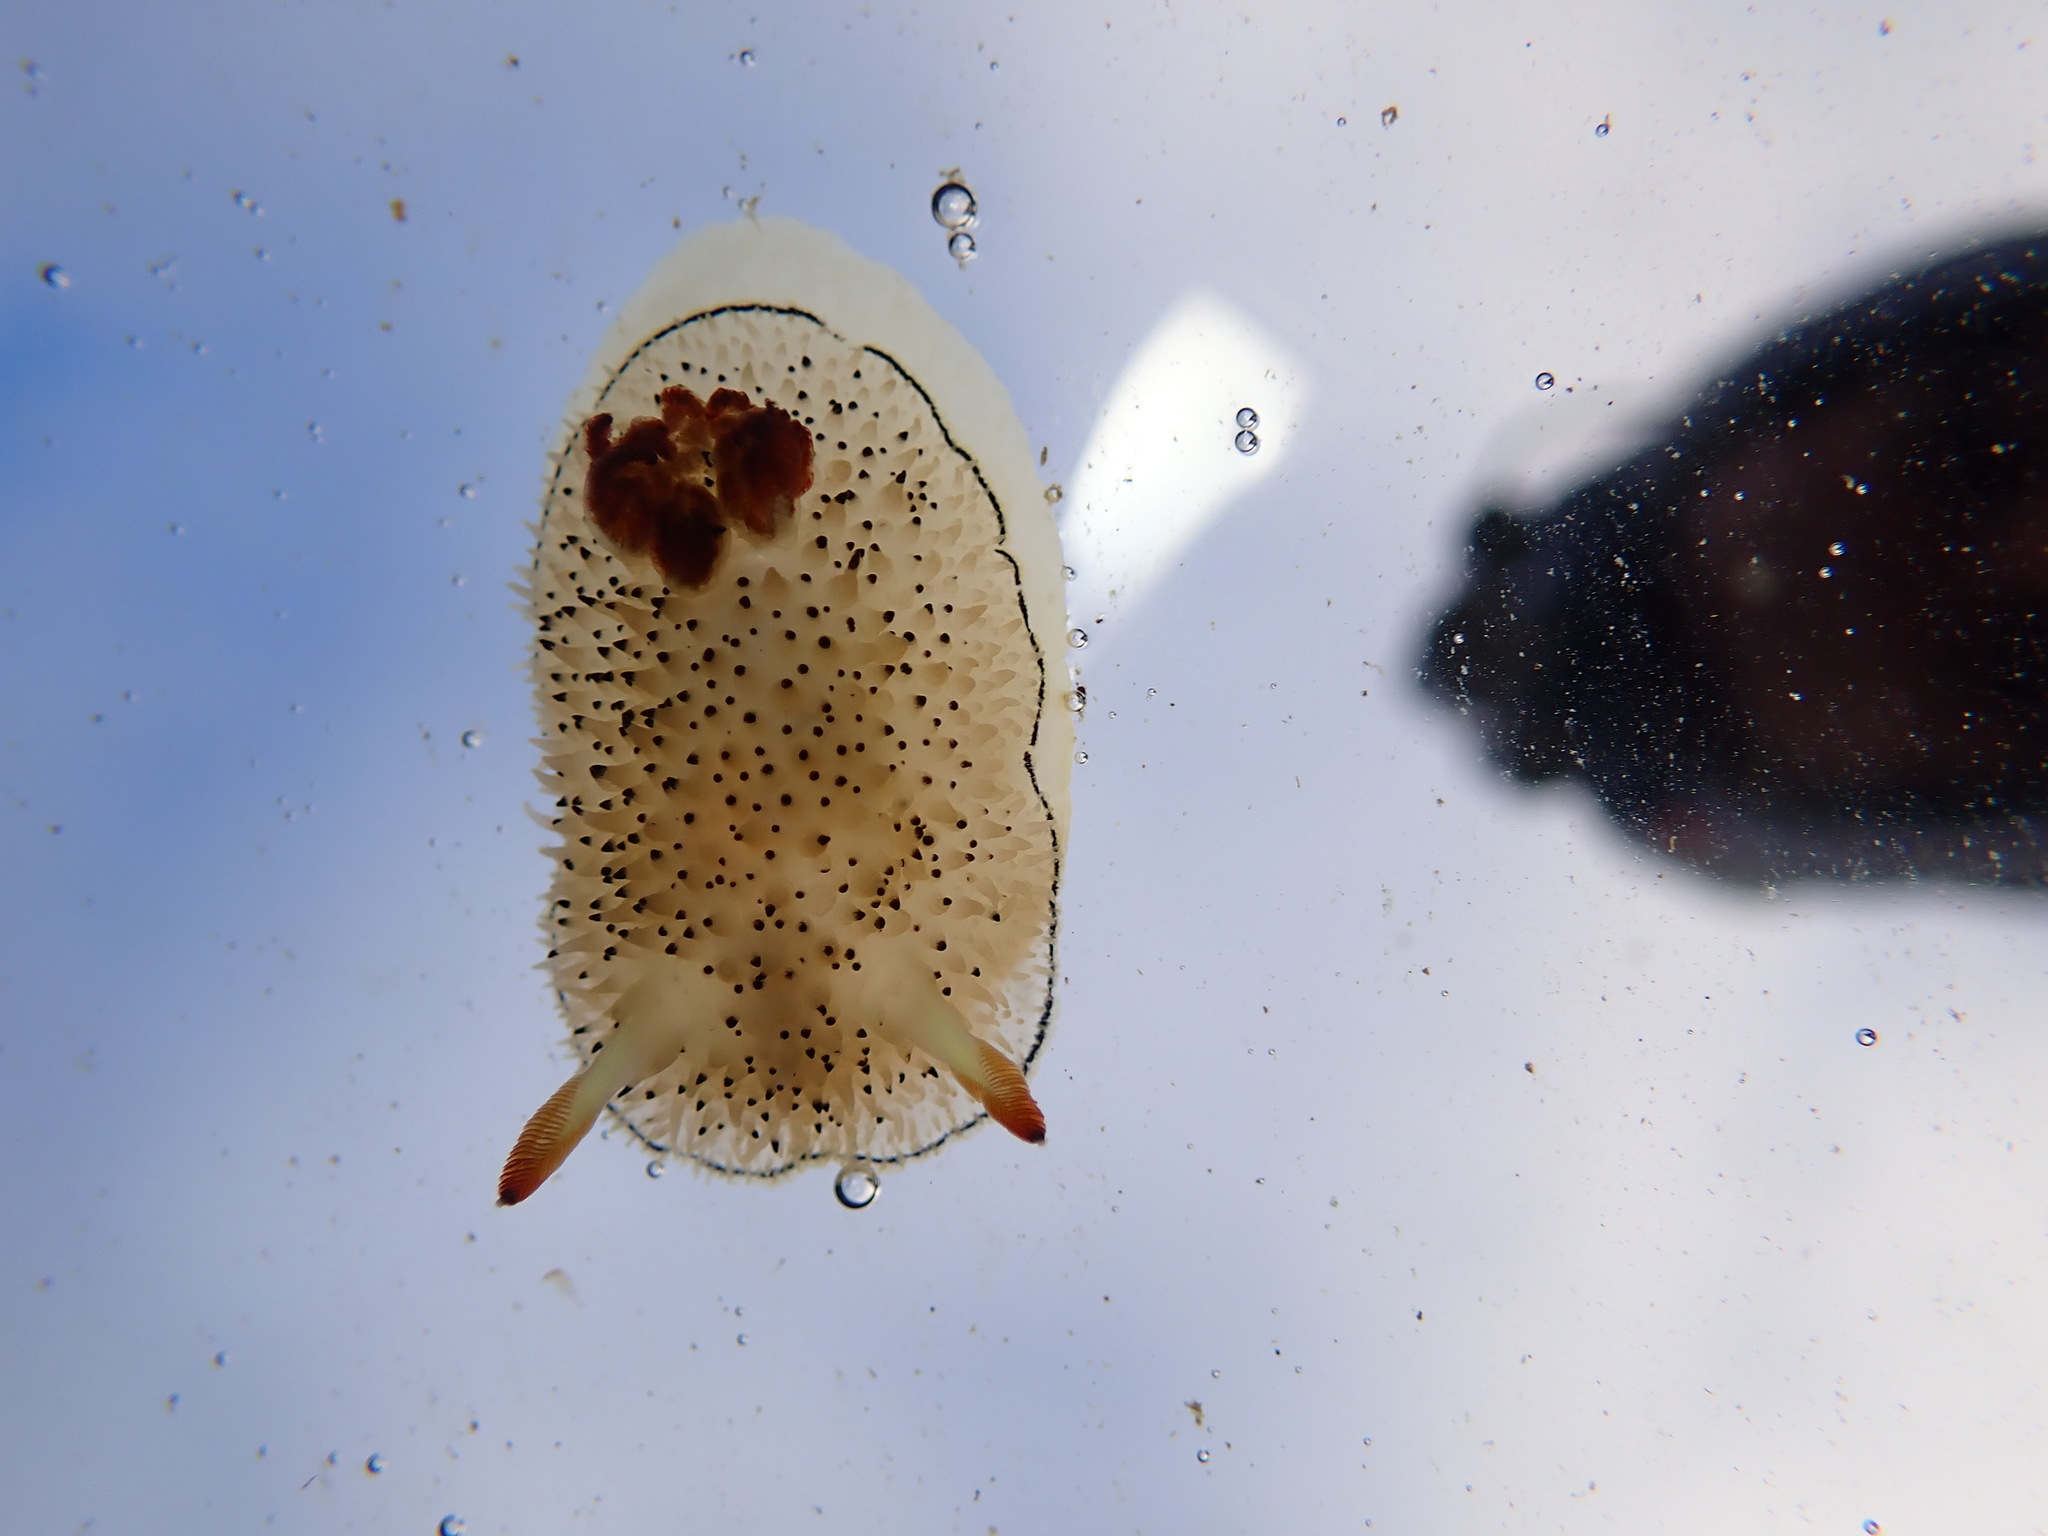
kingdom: Animalia
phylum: Mollusca
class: Gastropoda
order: Nudibranchia
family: Onchidorididae
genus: Acanthodoris
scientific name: Acanthodoris rhodoceras
